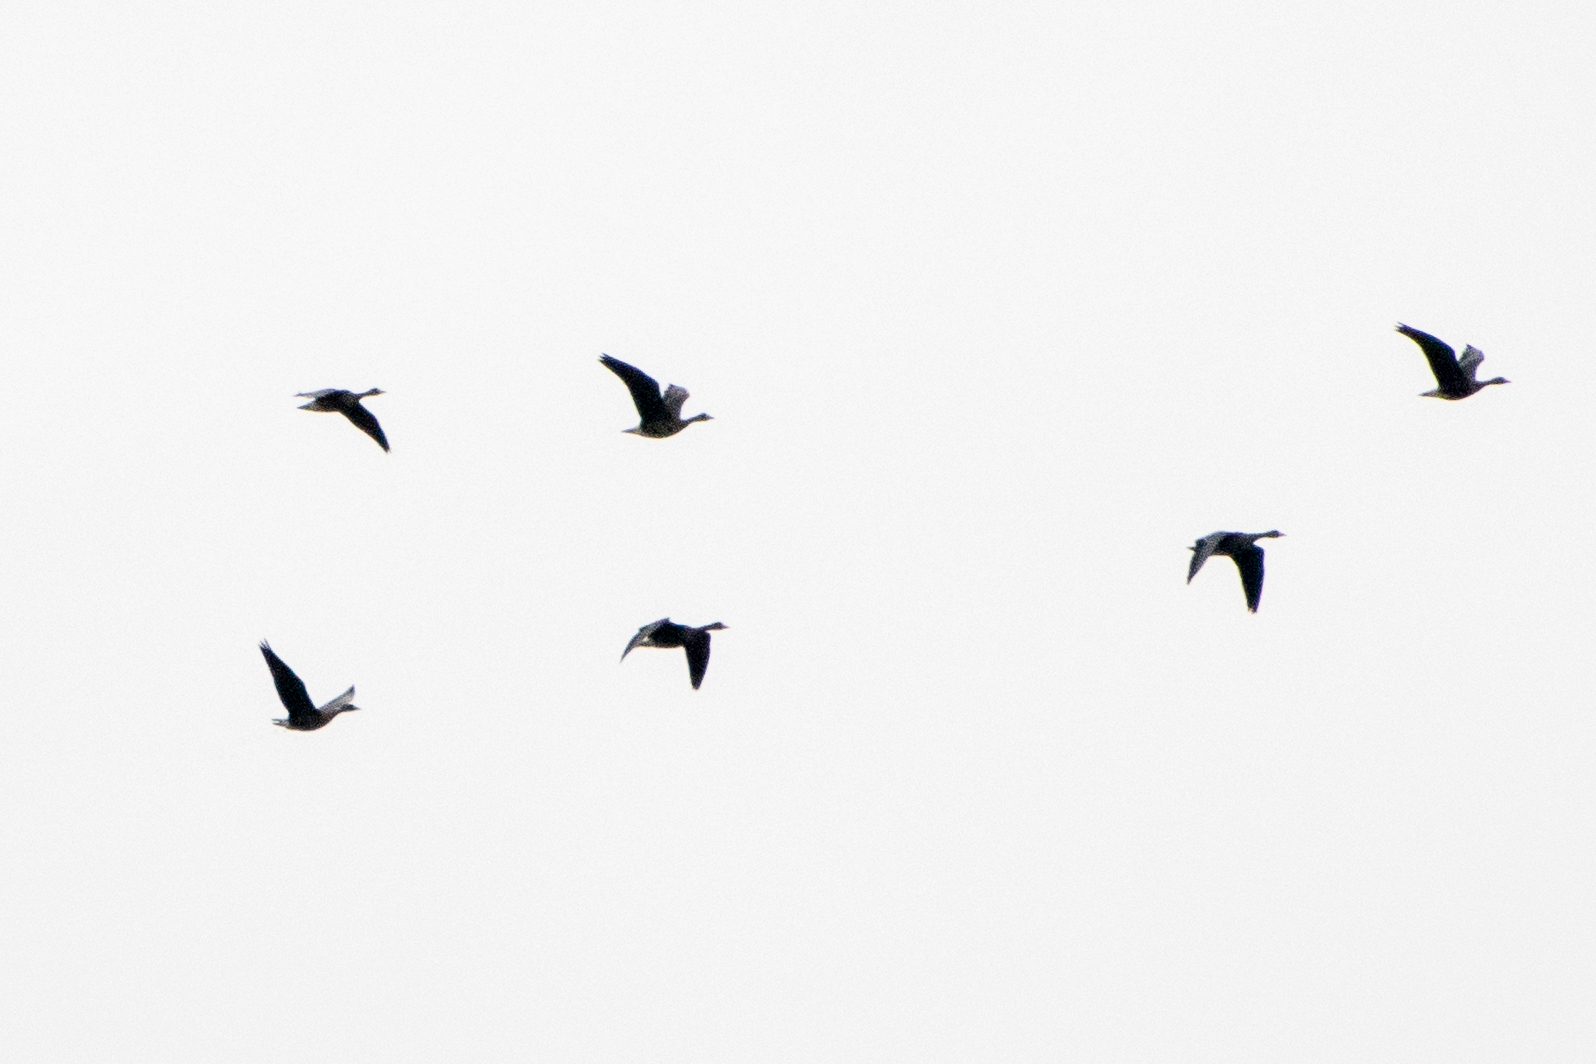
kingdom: Animalia
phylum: Chordata
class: Aves
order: Anseriformes
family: Anatidae
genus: Anser
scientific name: Anser albifrons
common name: Greater white-fronted goose
